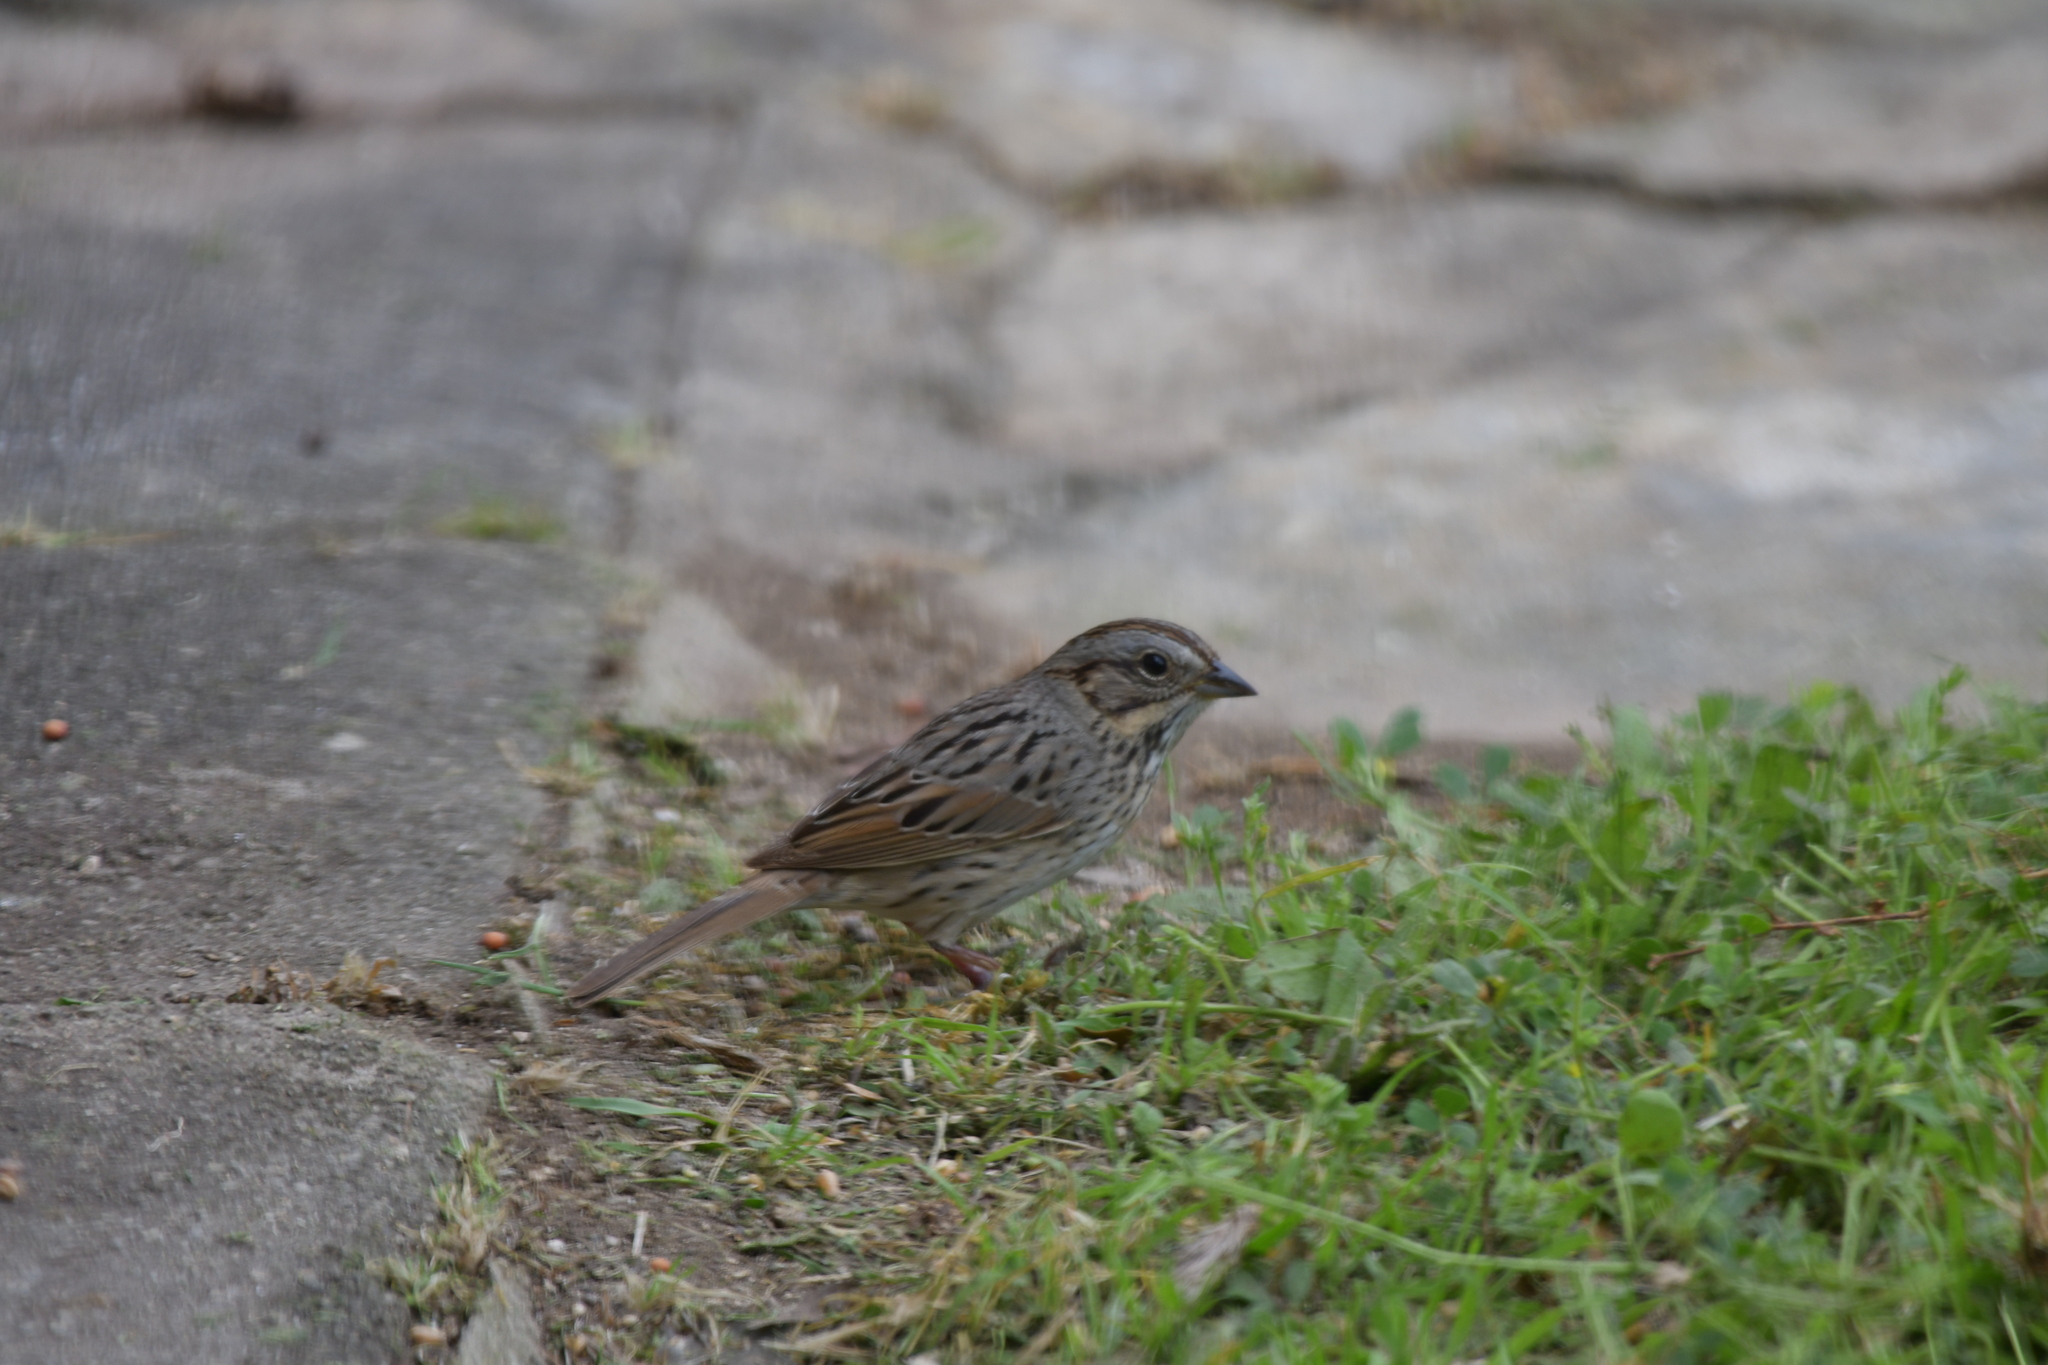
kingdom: Animalia
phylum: Chordata
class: Aves
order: Passeriformes
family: Passerellidae
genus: Melospiza
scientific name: Melospiza lincolnii
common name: Lincoln's sparrow
